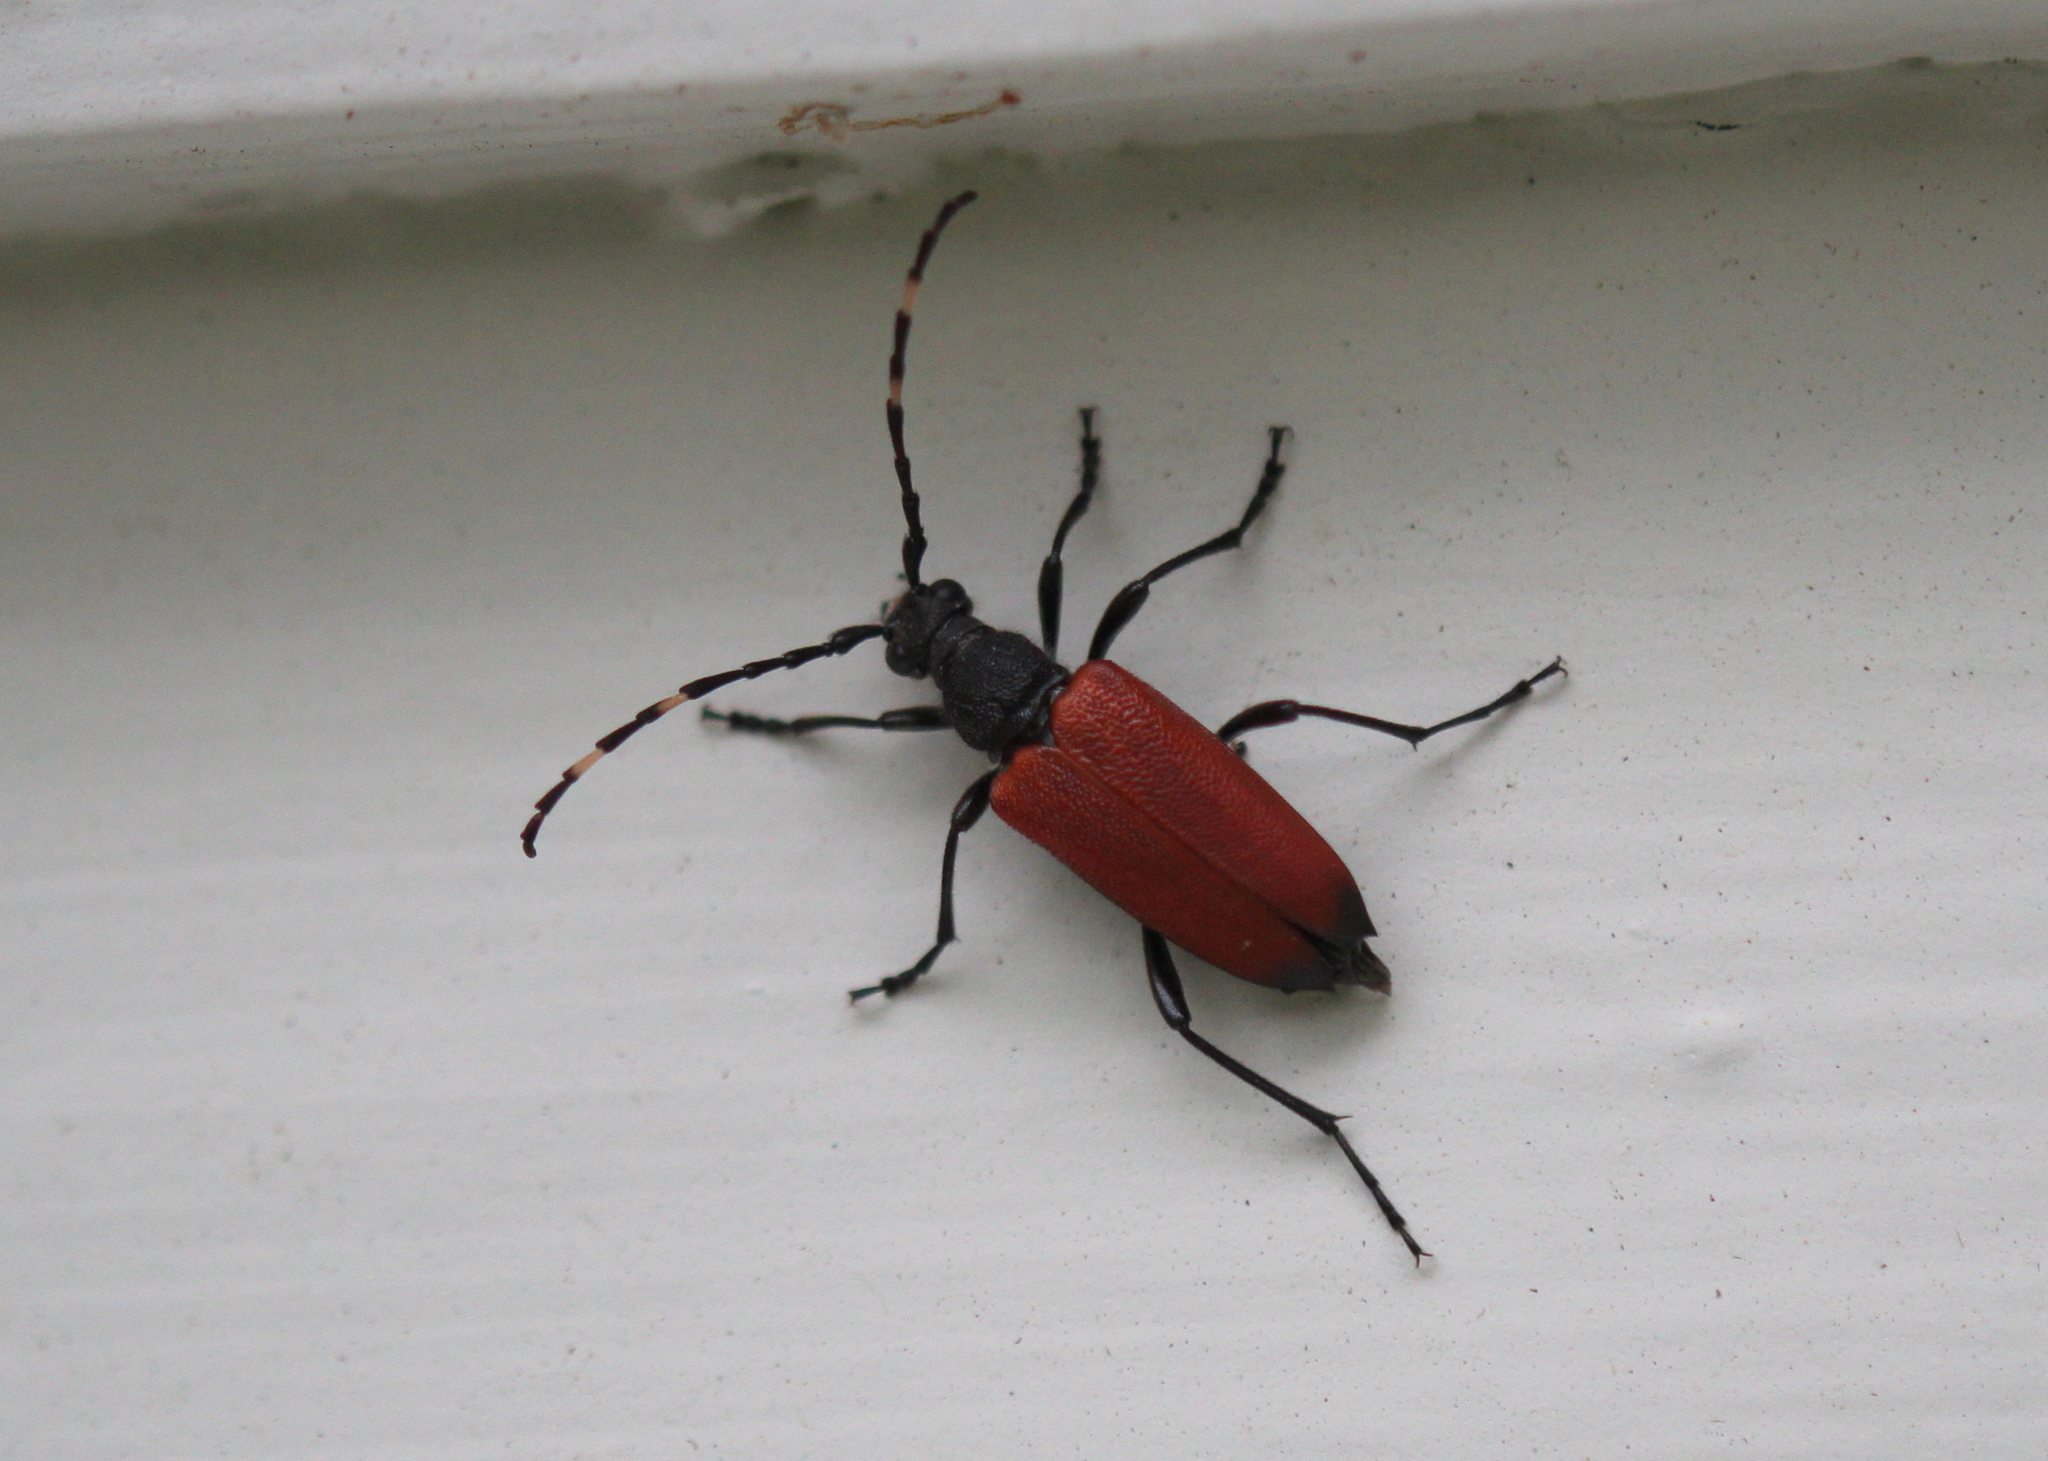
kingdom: Animalia
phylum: Arthropoda
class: Insecta
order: Coleoptera
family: Cerambycidae
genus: Stictoleptura
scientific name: Stictoleptura canadensis
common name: Red-shouldered pine borer
